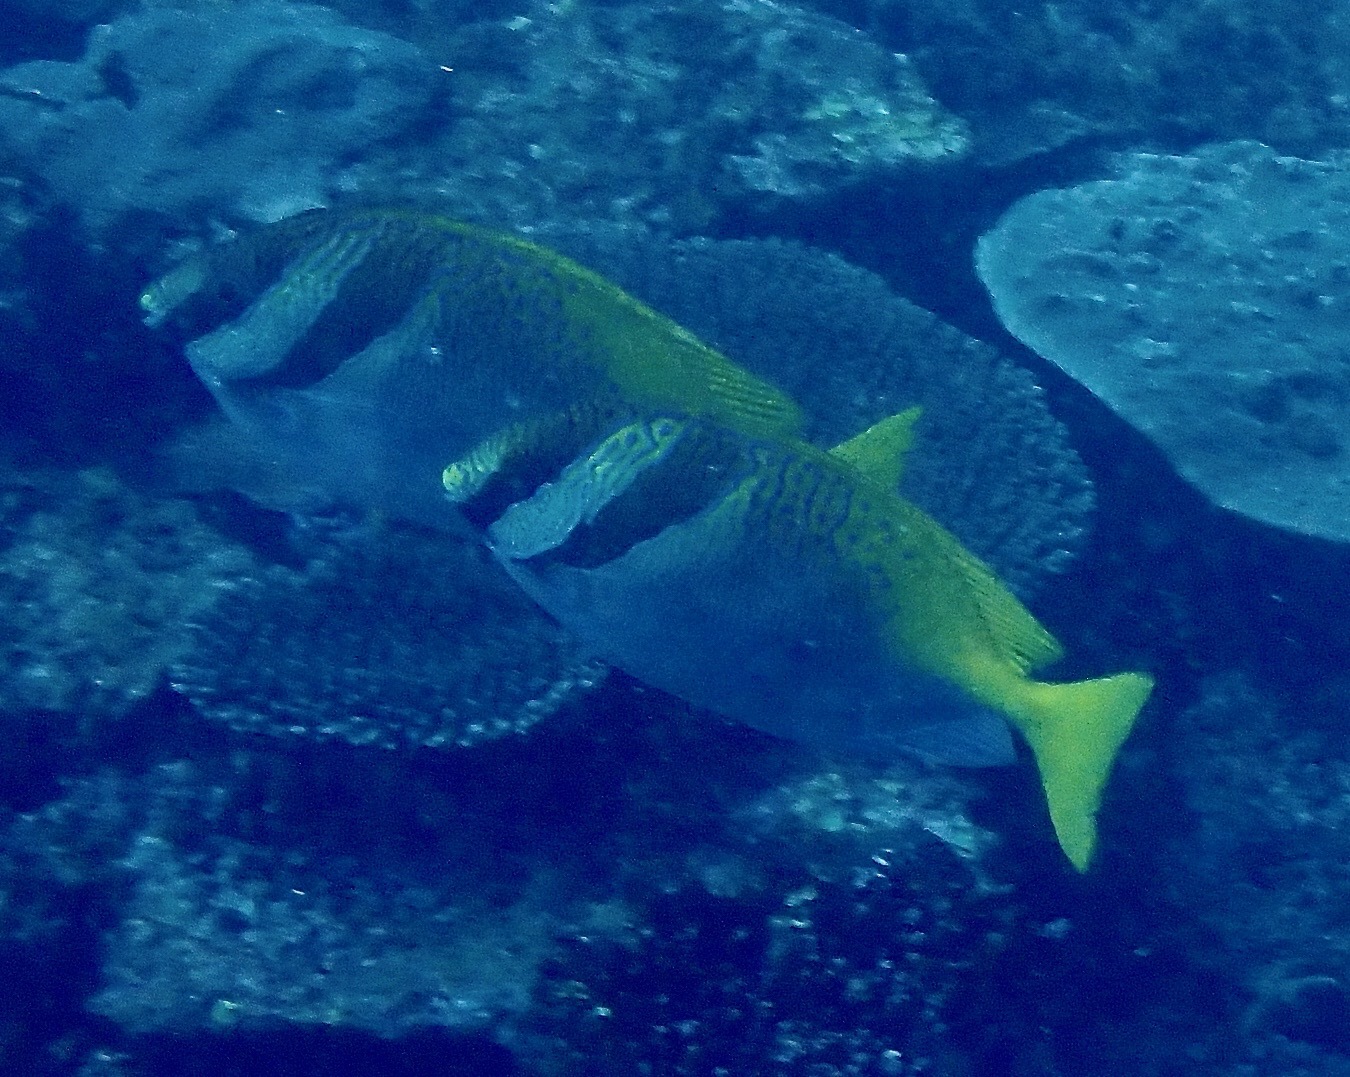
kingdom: Animalia
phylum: Chordata
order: Perciformes
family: Siganidae
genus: Siganus
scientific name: Siganus virgatus
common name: Barhead spinefoot
